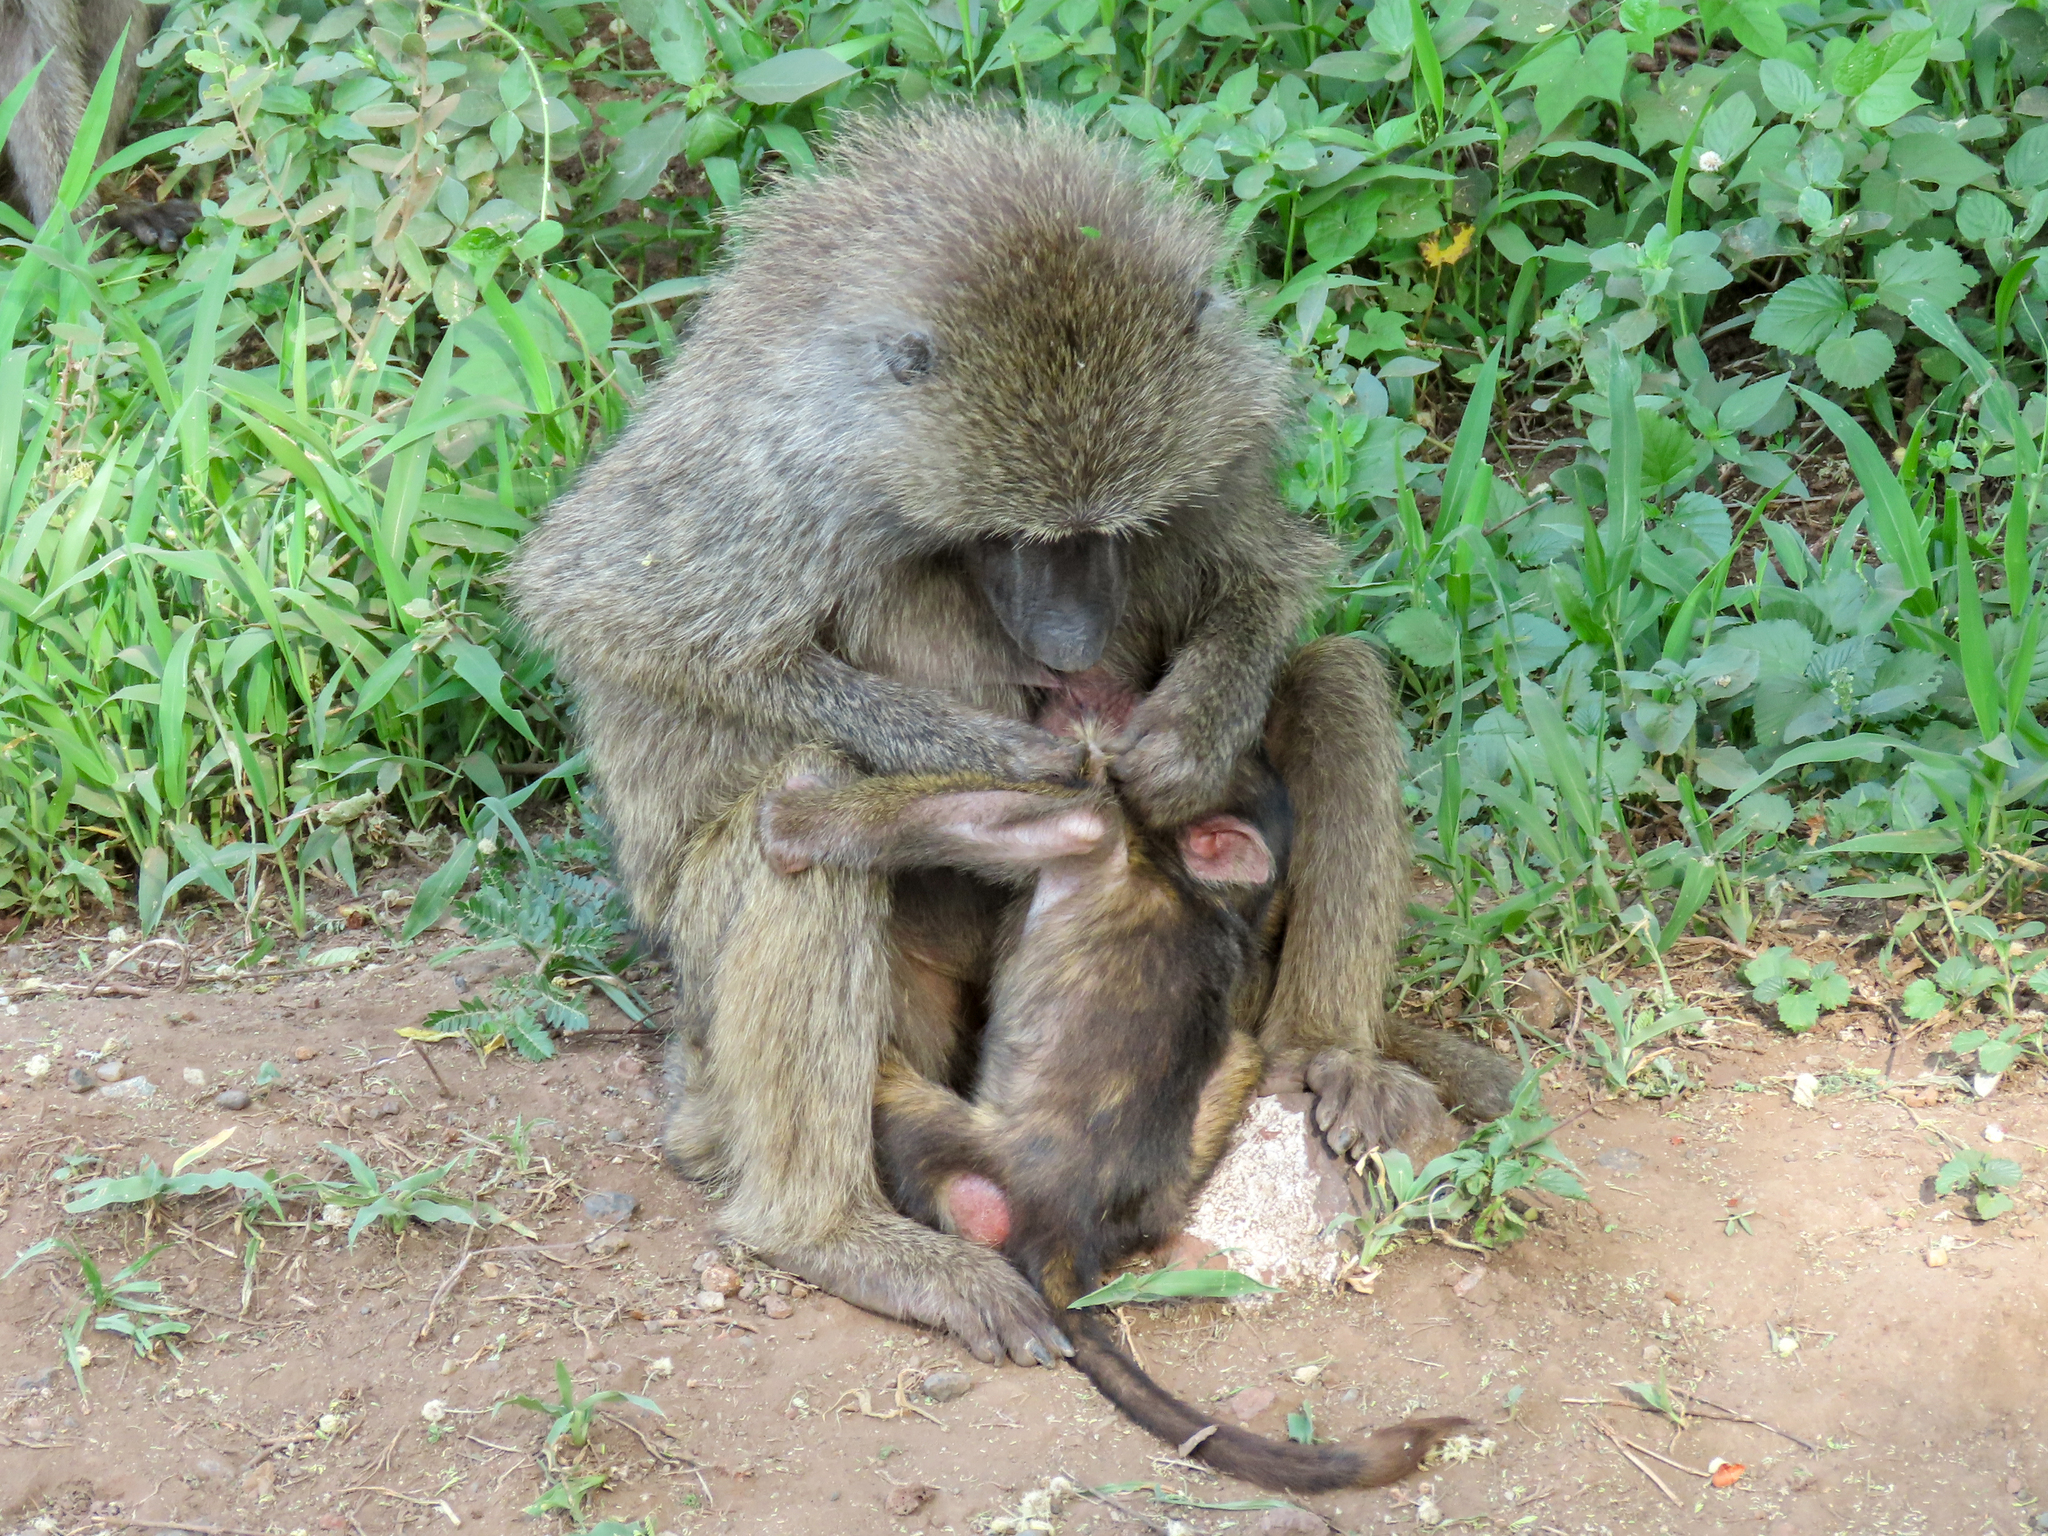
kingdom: Animalia
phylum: Chordata
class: Mammalia
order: Primates
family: Cercopithecidae
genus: Papio
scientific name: Papio anubis
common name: Olive baboon
